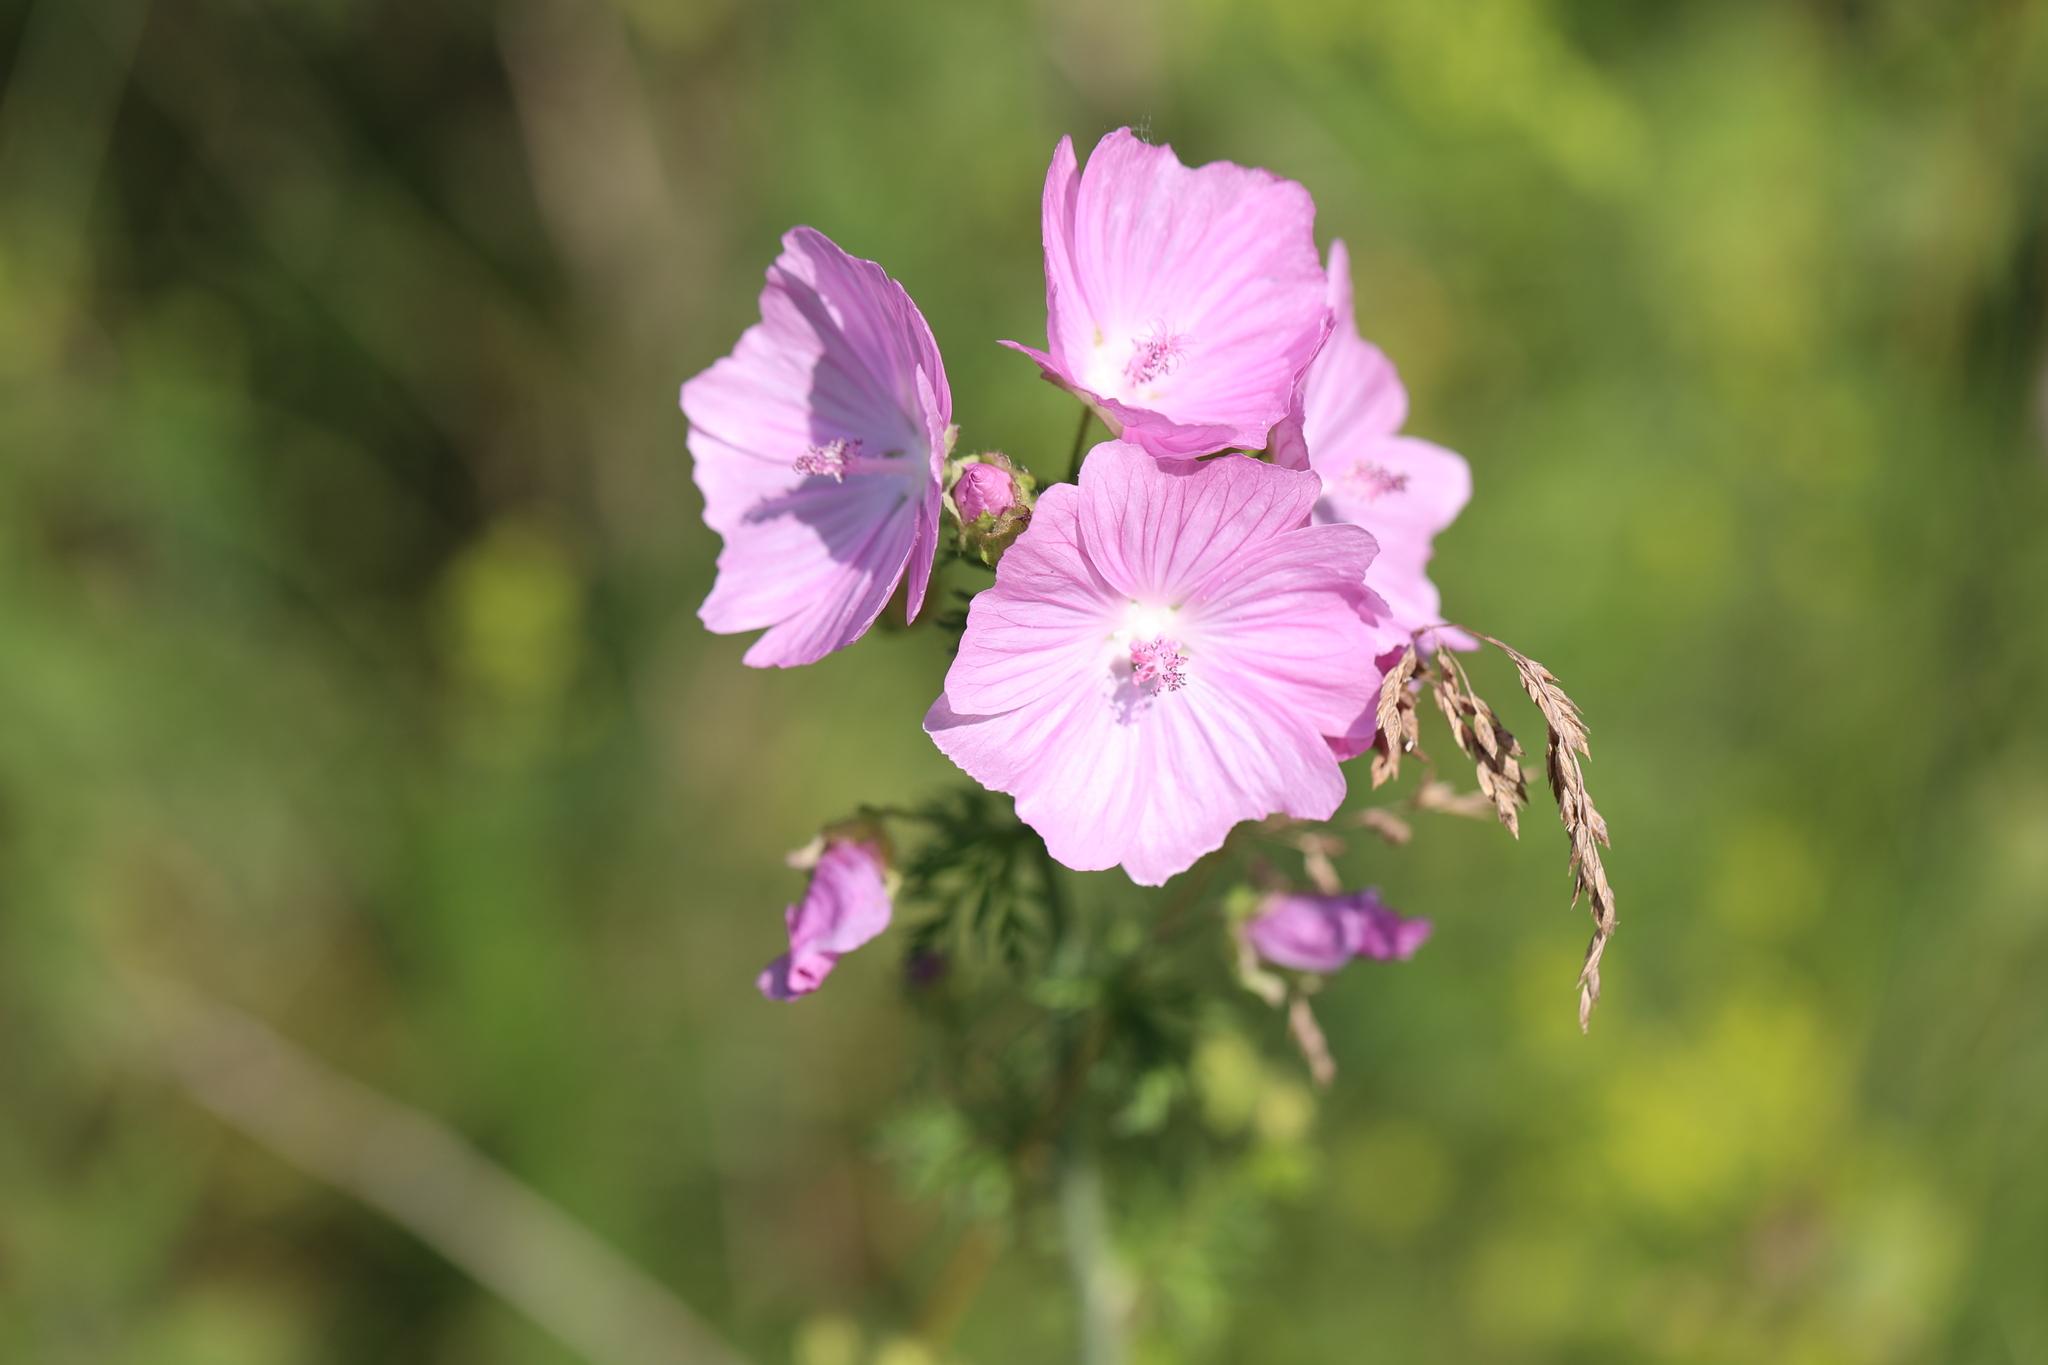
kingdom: Plantae
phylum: Tracheophyta
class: Magnoliopsida
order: Malvales
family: Malvaceae
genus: Malva
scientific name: Malva moschata
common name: Musk mallow
